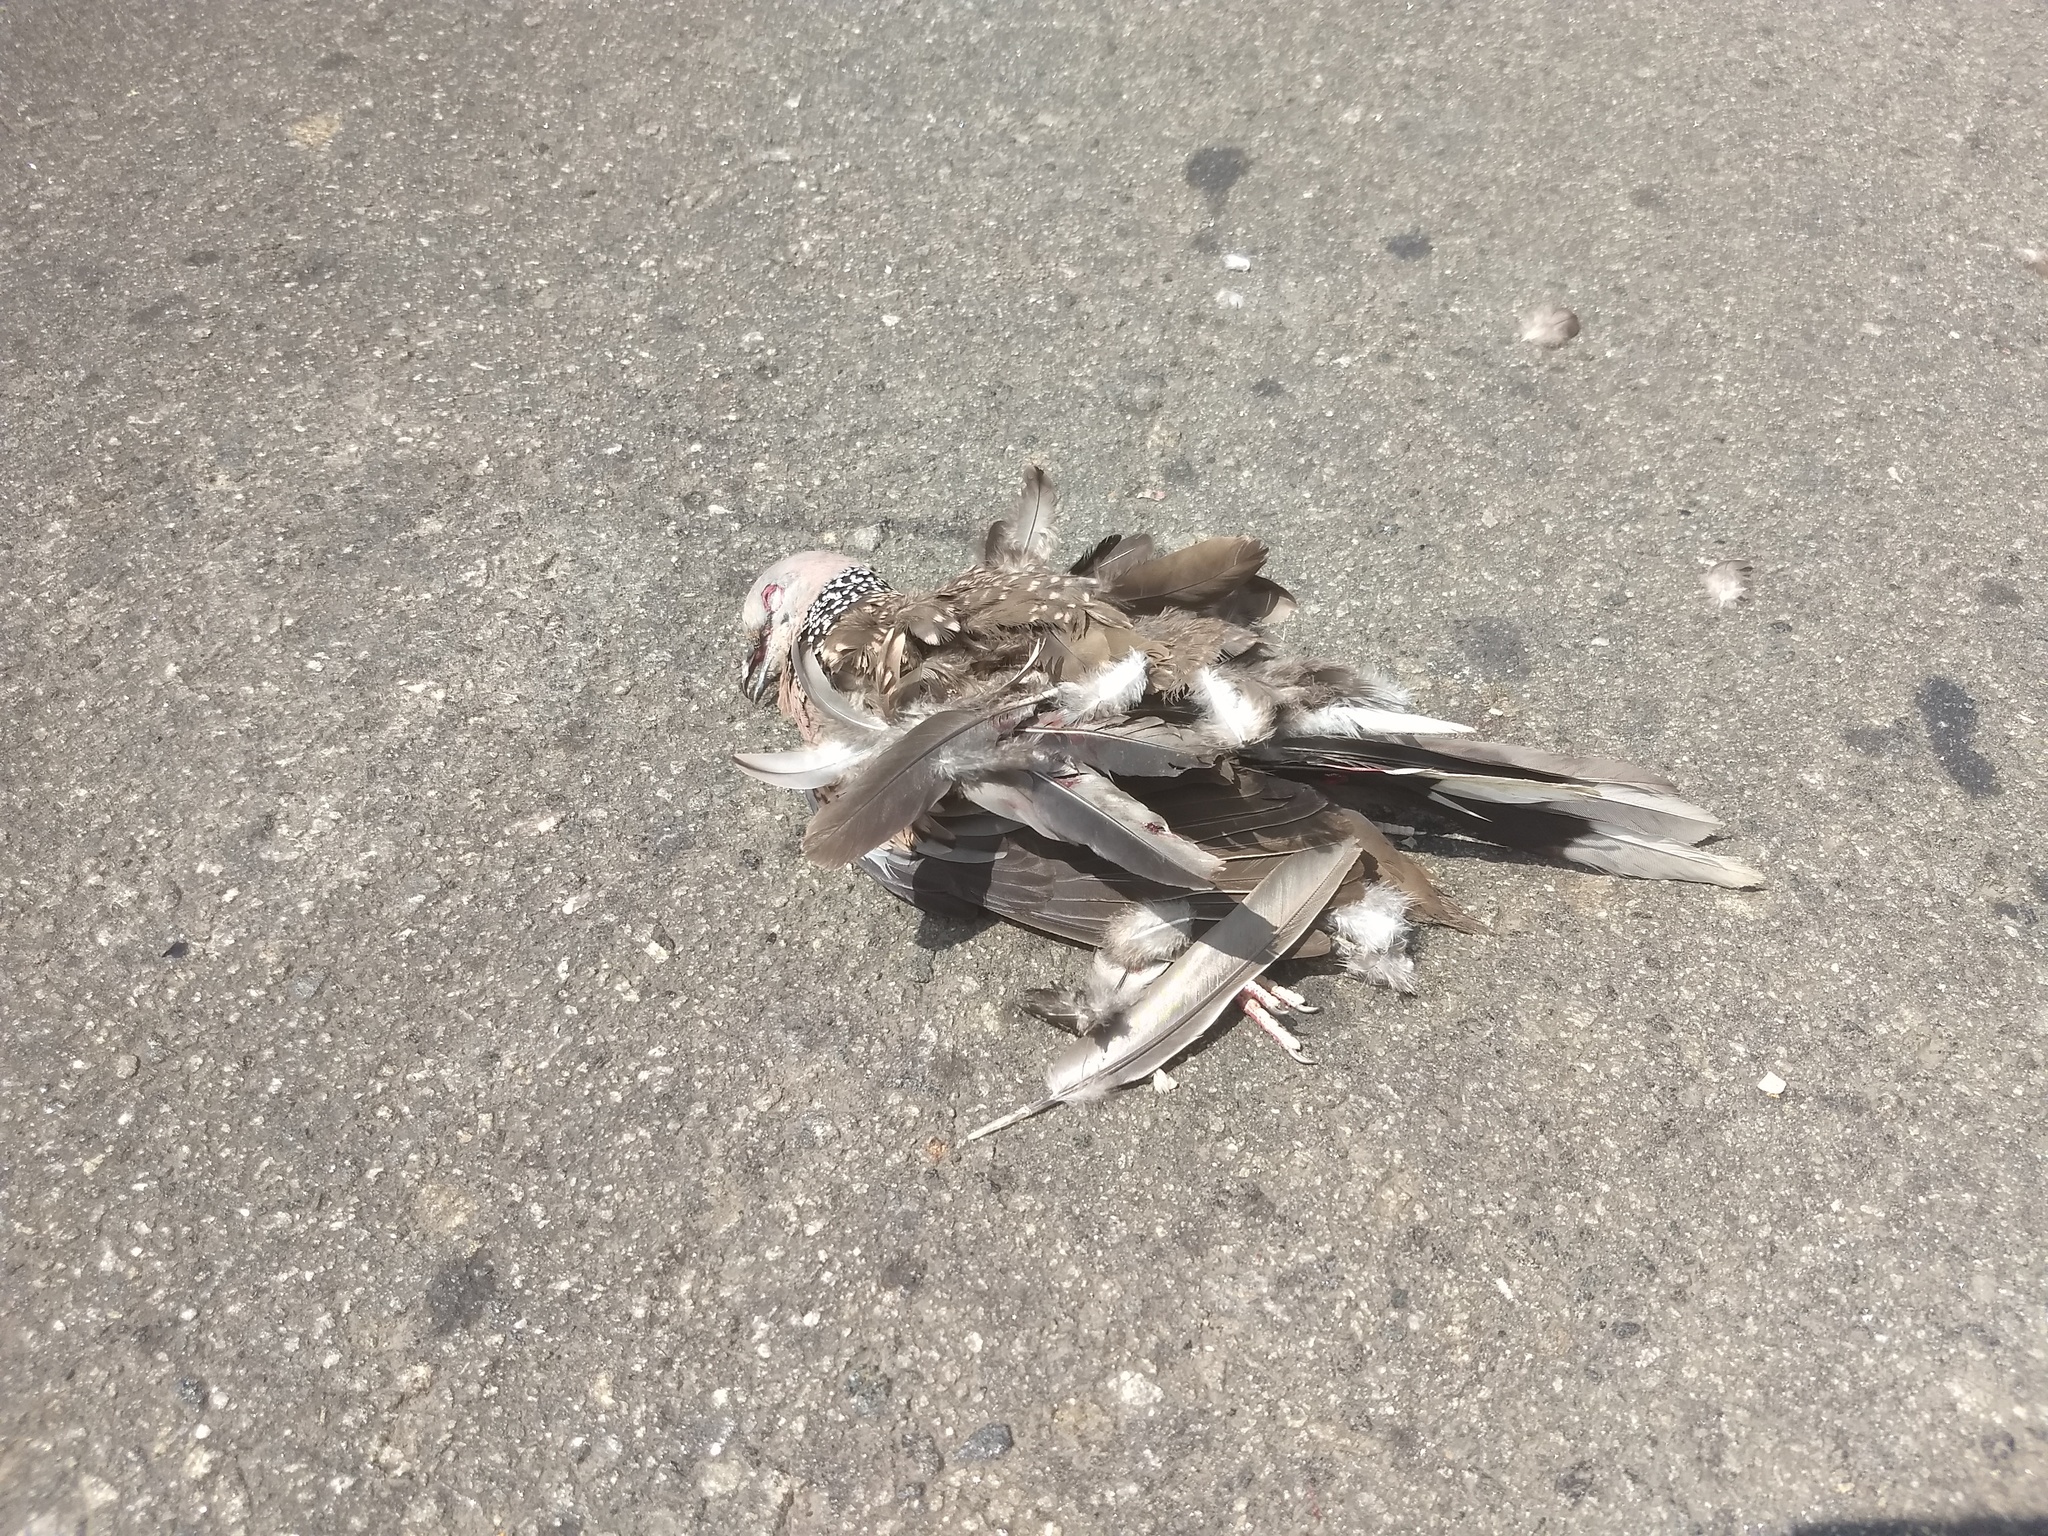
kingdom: Animalia
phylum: Chordata
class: Aves
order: Columbiformes
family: Columbidae
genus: Spilopelia
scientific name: Spilopelia chinensis
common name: Spotted dove
